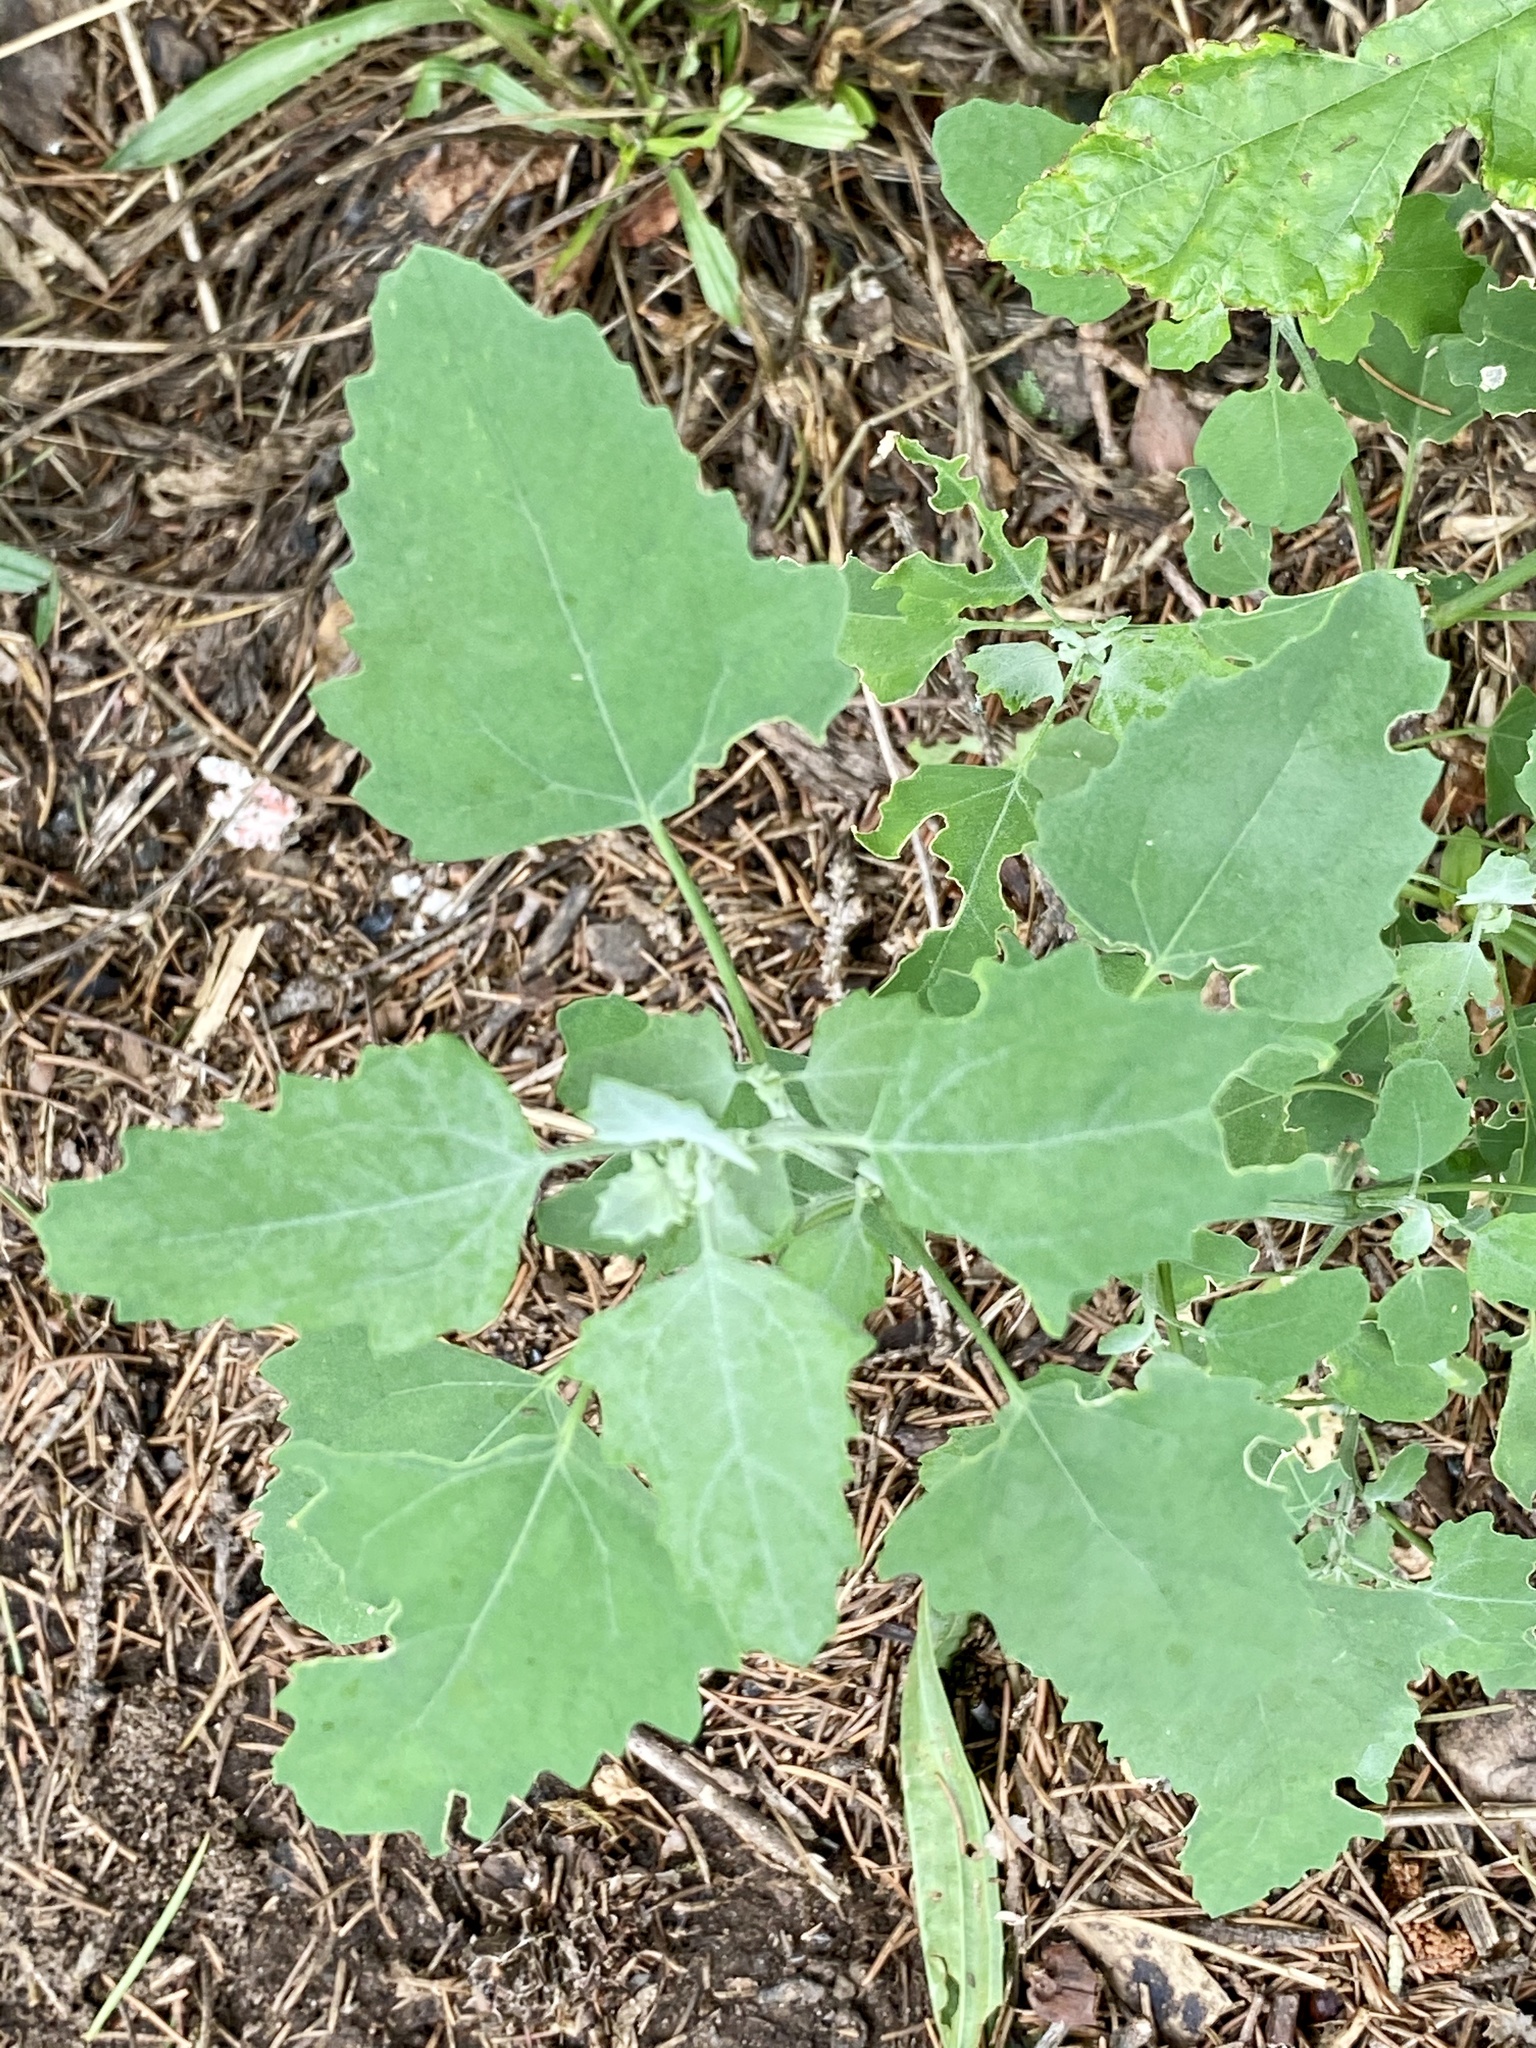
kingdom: Plantae
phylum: Tracheophyta
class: Magnoliopsida
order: Caryophyllales
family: Amaranthaceae
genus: Chenopodium
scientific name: Chenopodium album
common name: Fat-hen
